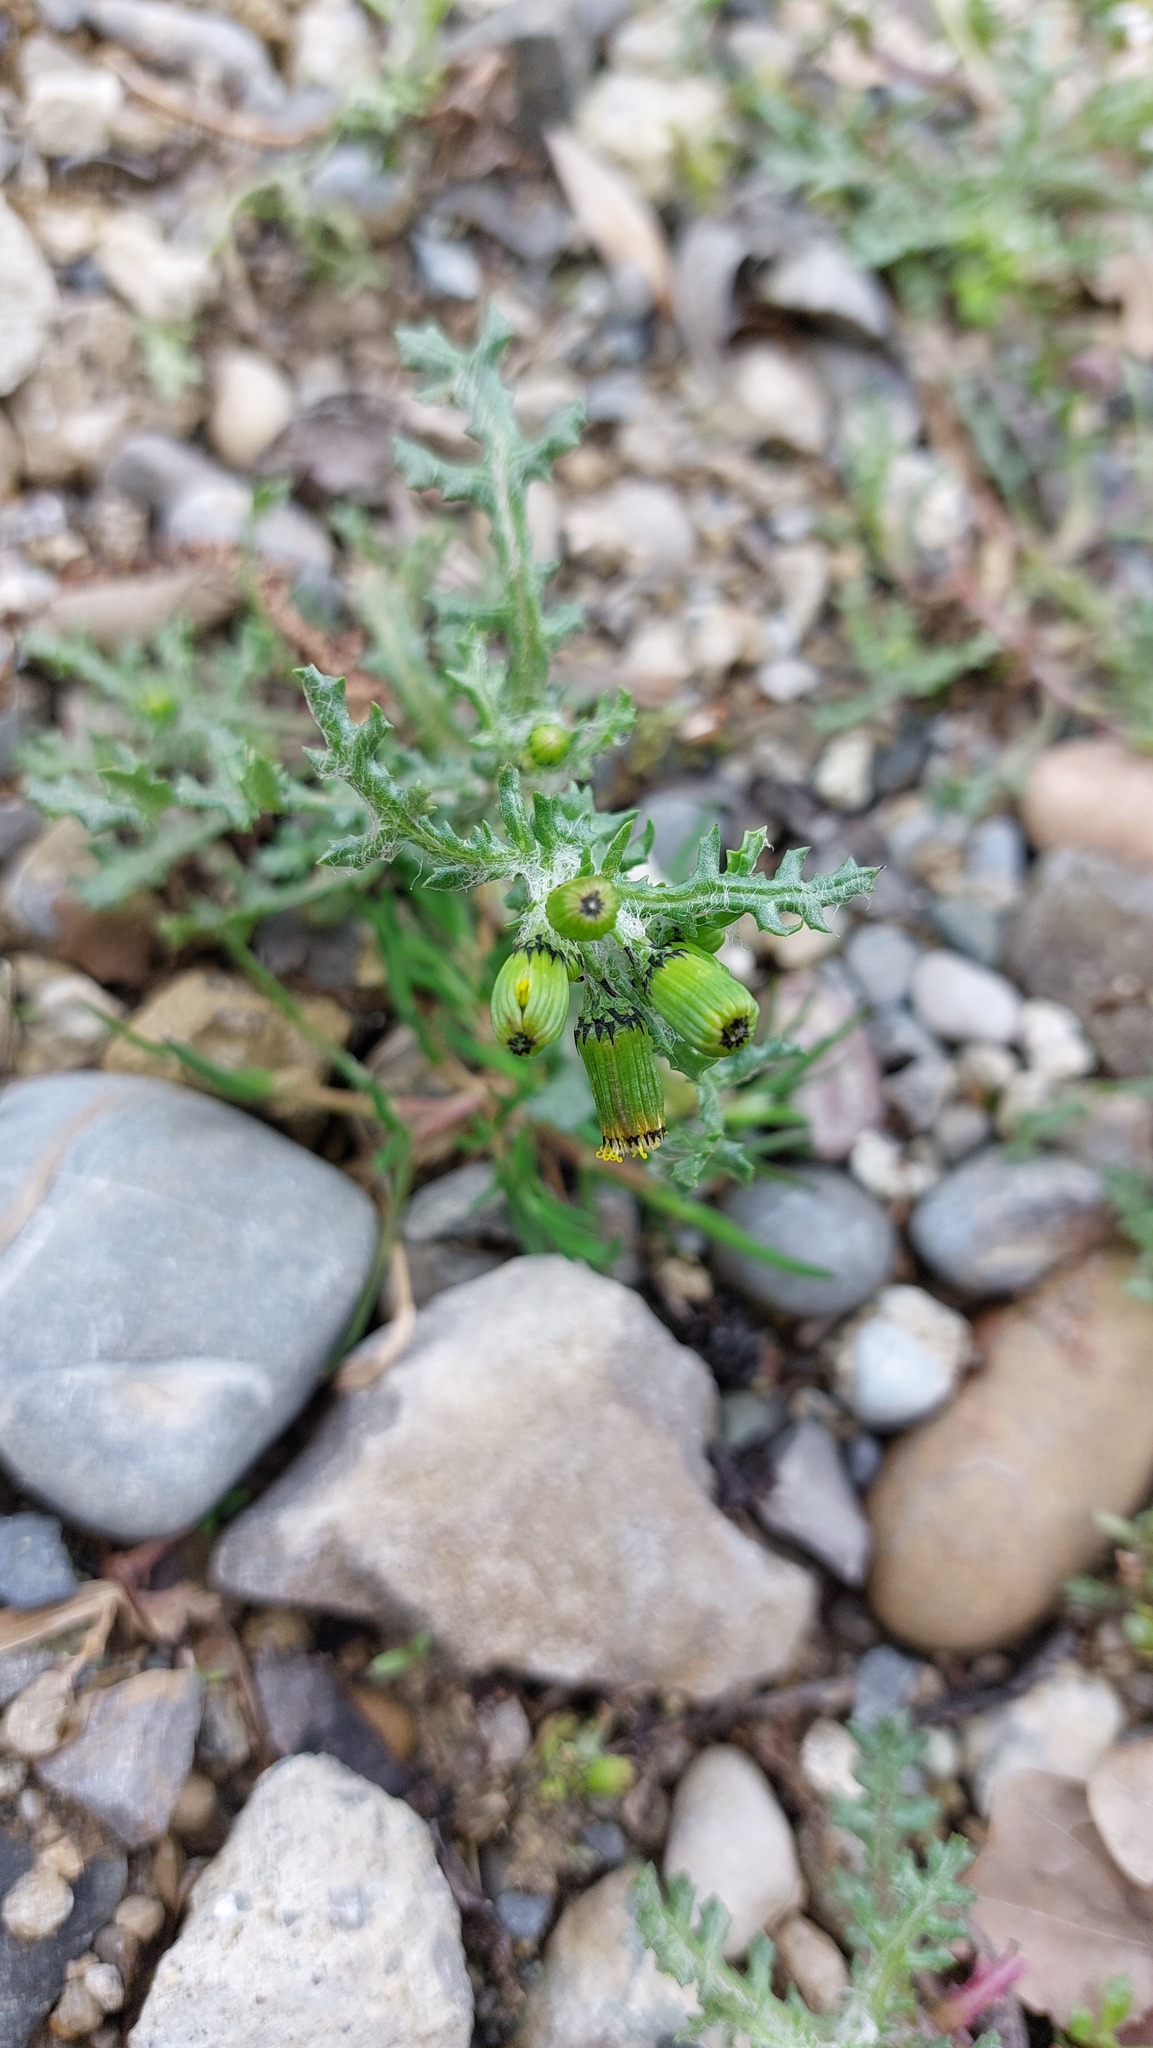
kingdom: Plantae
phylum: Tracheophyta
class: Magnoliopsida
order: Asterales
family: Asteraceae
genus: Senecio
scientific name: Senecio vulgaris
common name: Old-man-in-the-spring
